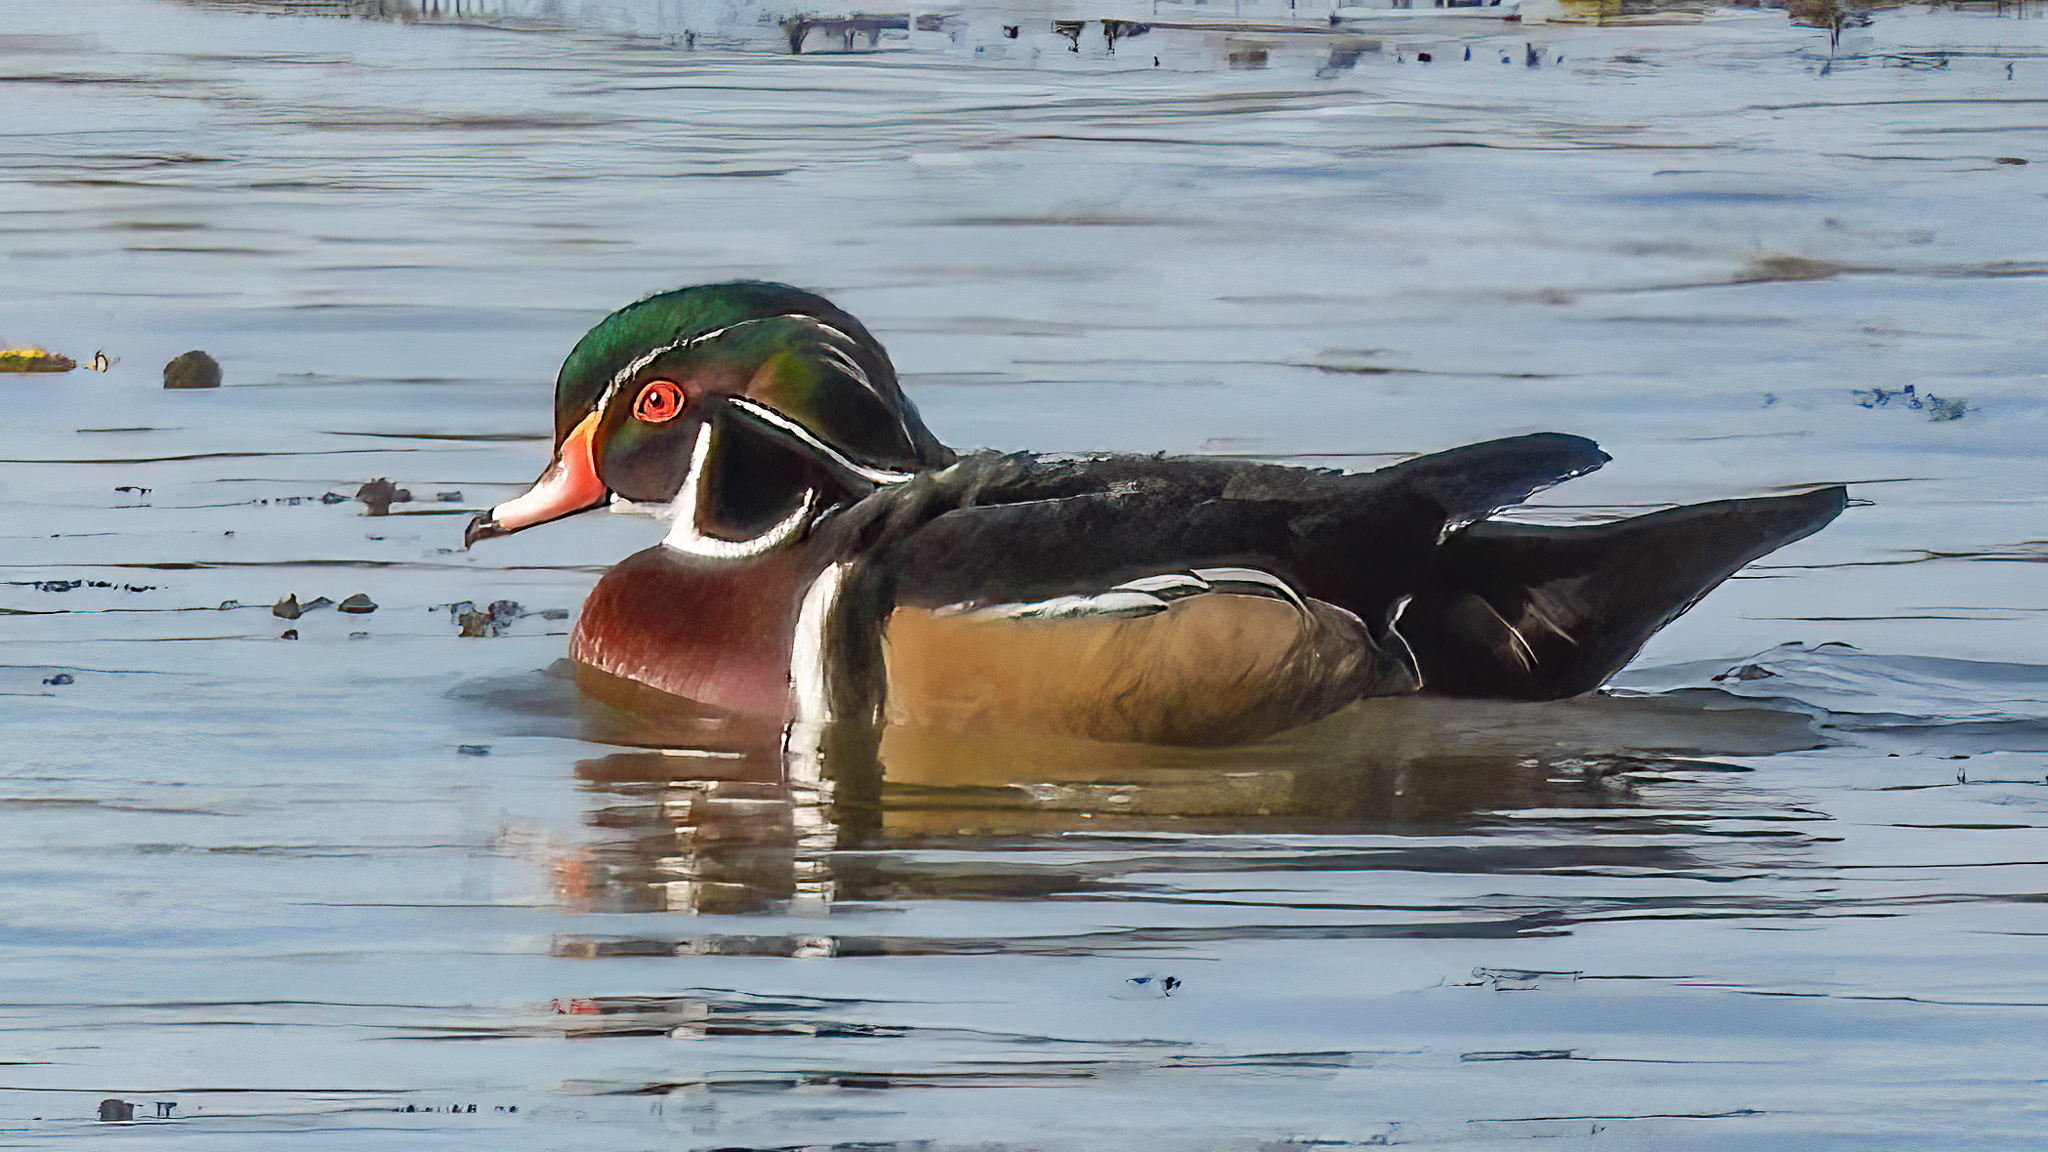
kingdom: Animalia
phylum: Chordata
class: Aves
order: Anseriformes
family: Anatidae
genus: Aix
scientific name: Aix sponsa
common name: Wood duck
